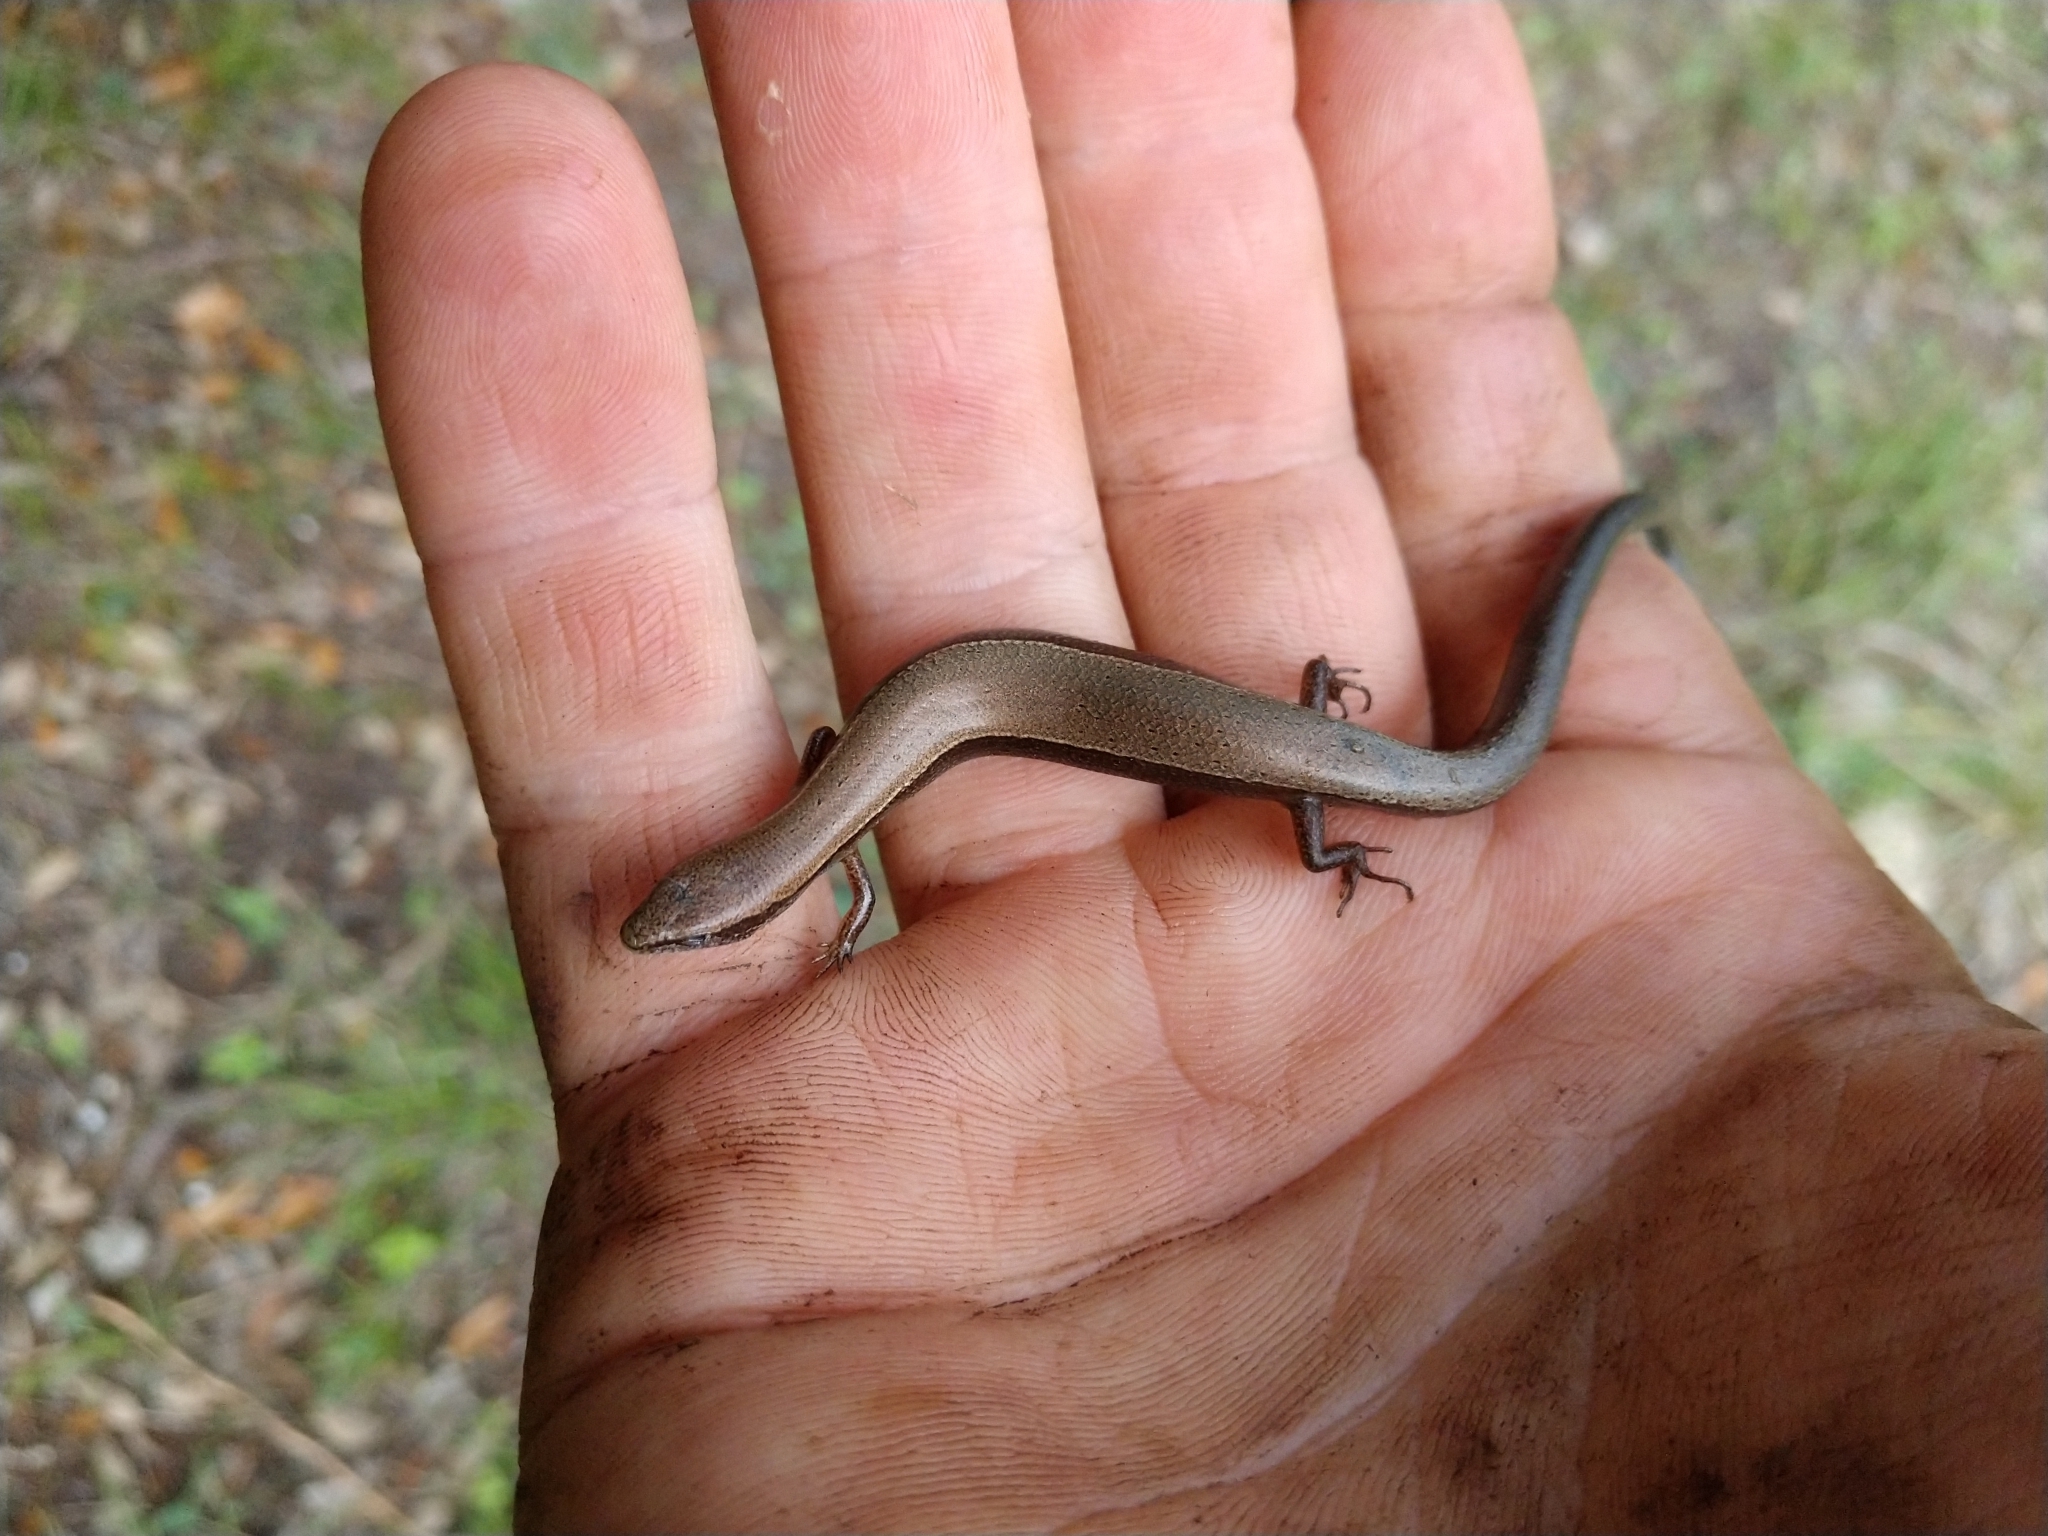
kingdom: Animalia
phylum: Chordata
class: Squamata
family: Scincidae
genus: Scincella
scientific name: Scincella lateralis
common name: Ground skink
